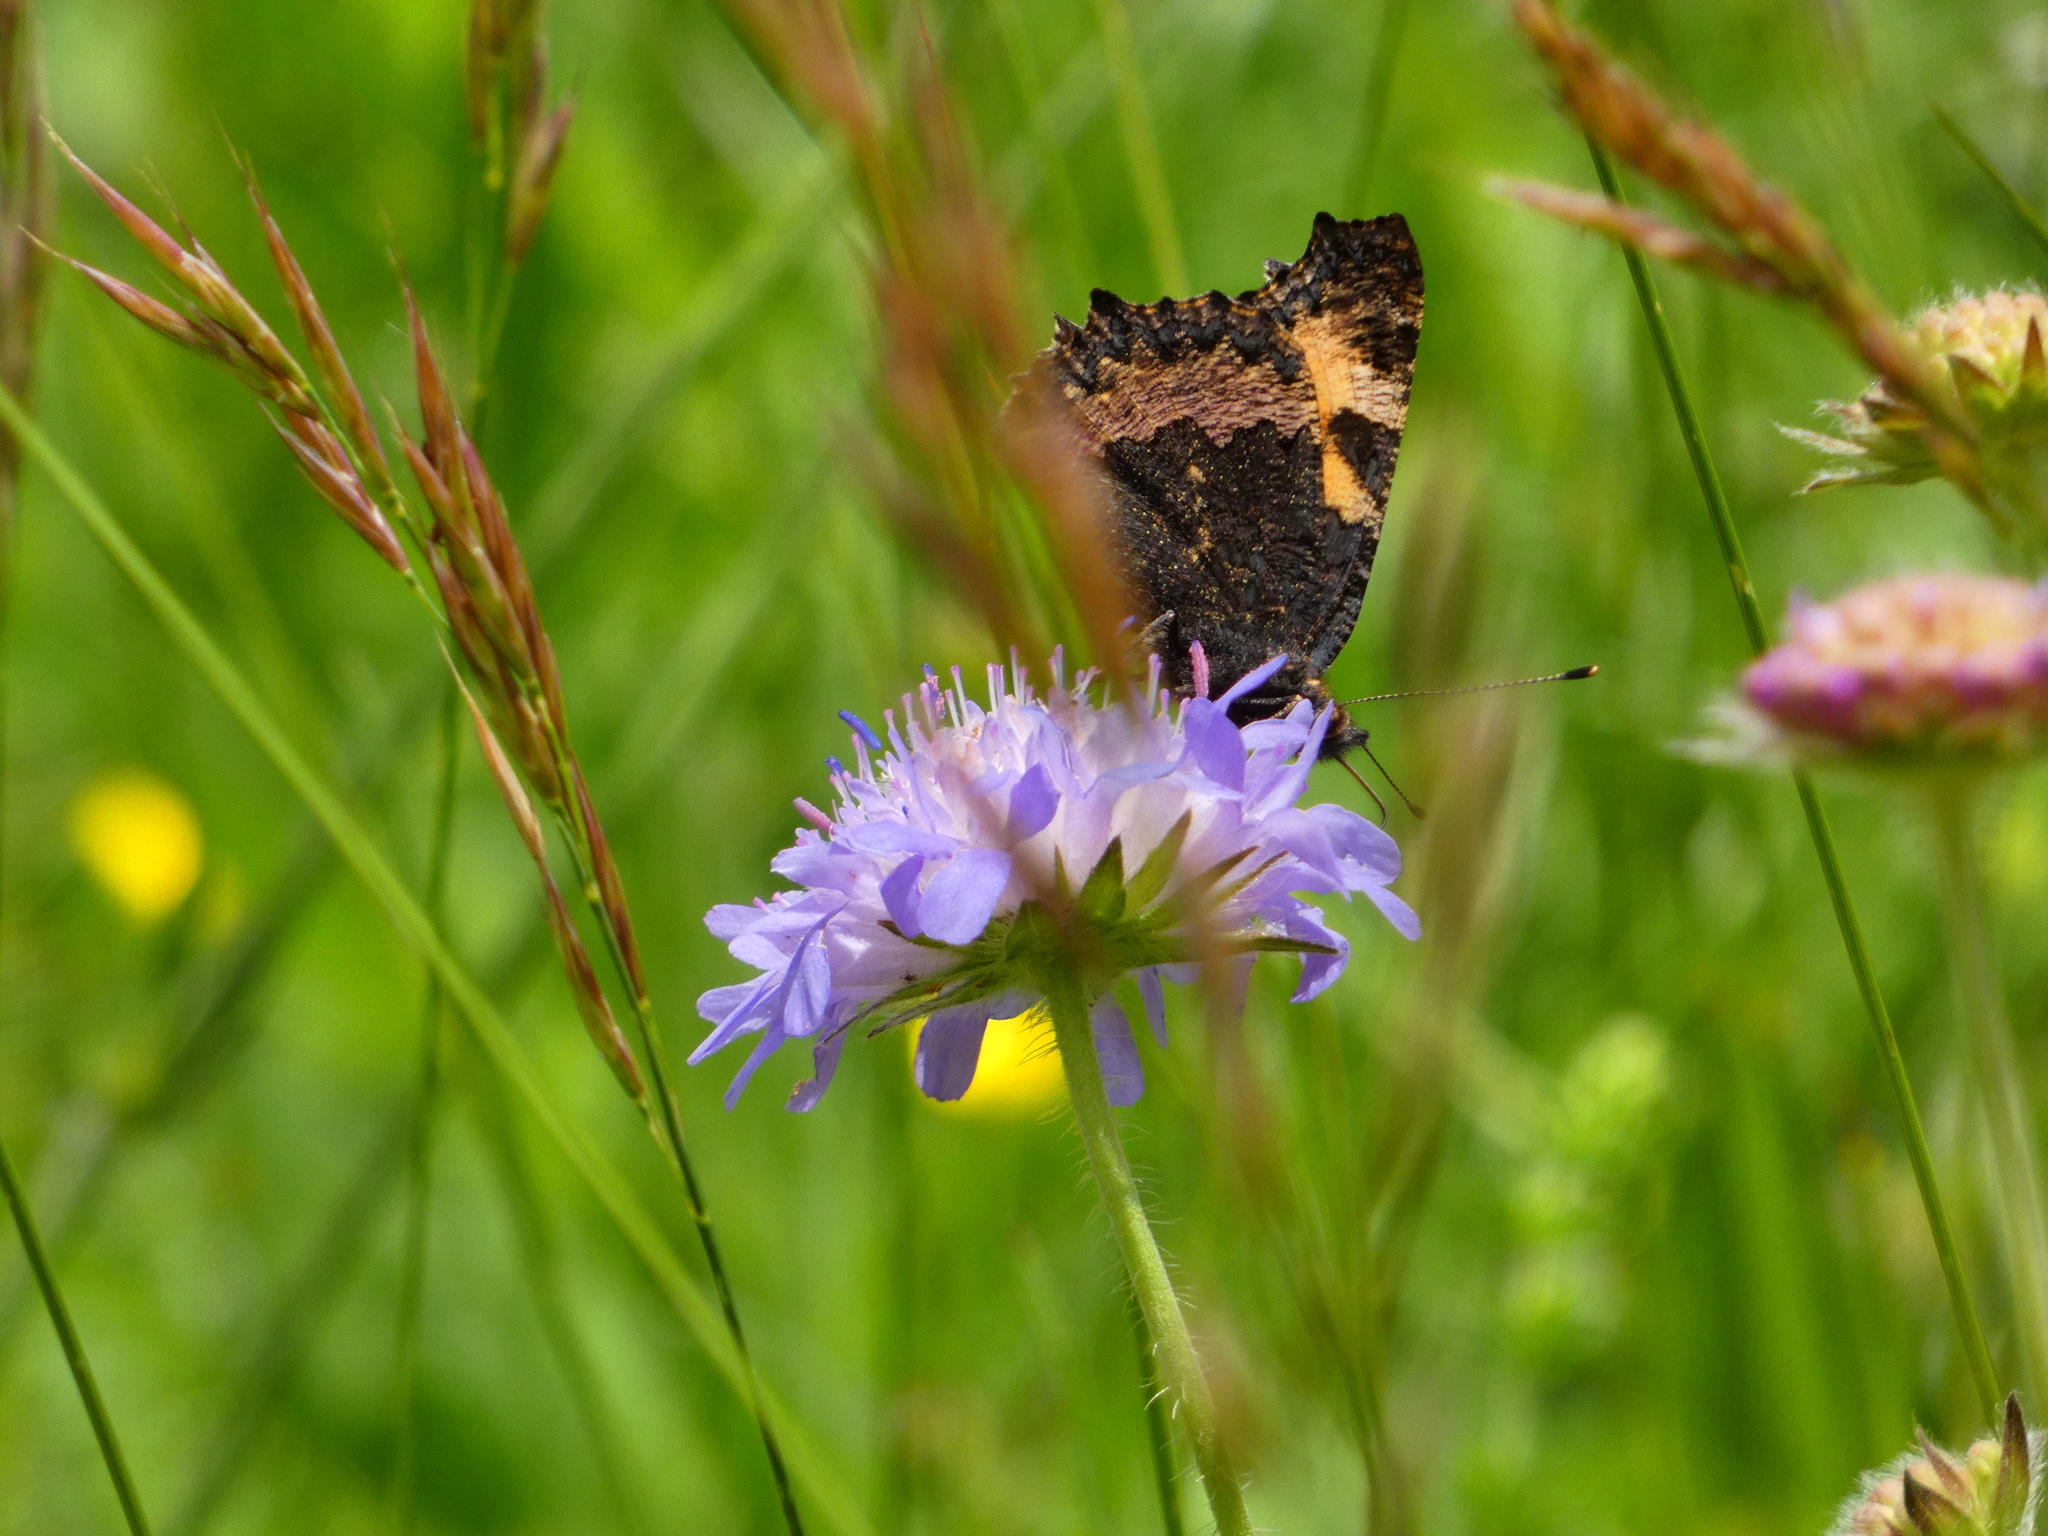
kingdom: Animalia
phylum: Arthropoda
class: Insecta
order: Lepidoptera
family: Nymphalidae
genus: Aglais
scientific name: Aglais urticae
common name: Small tortoiseshell
